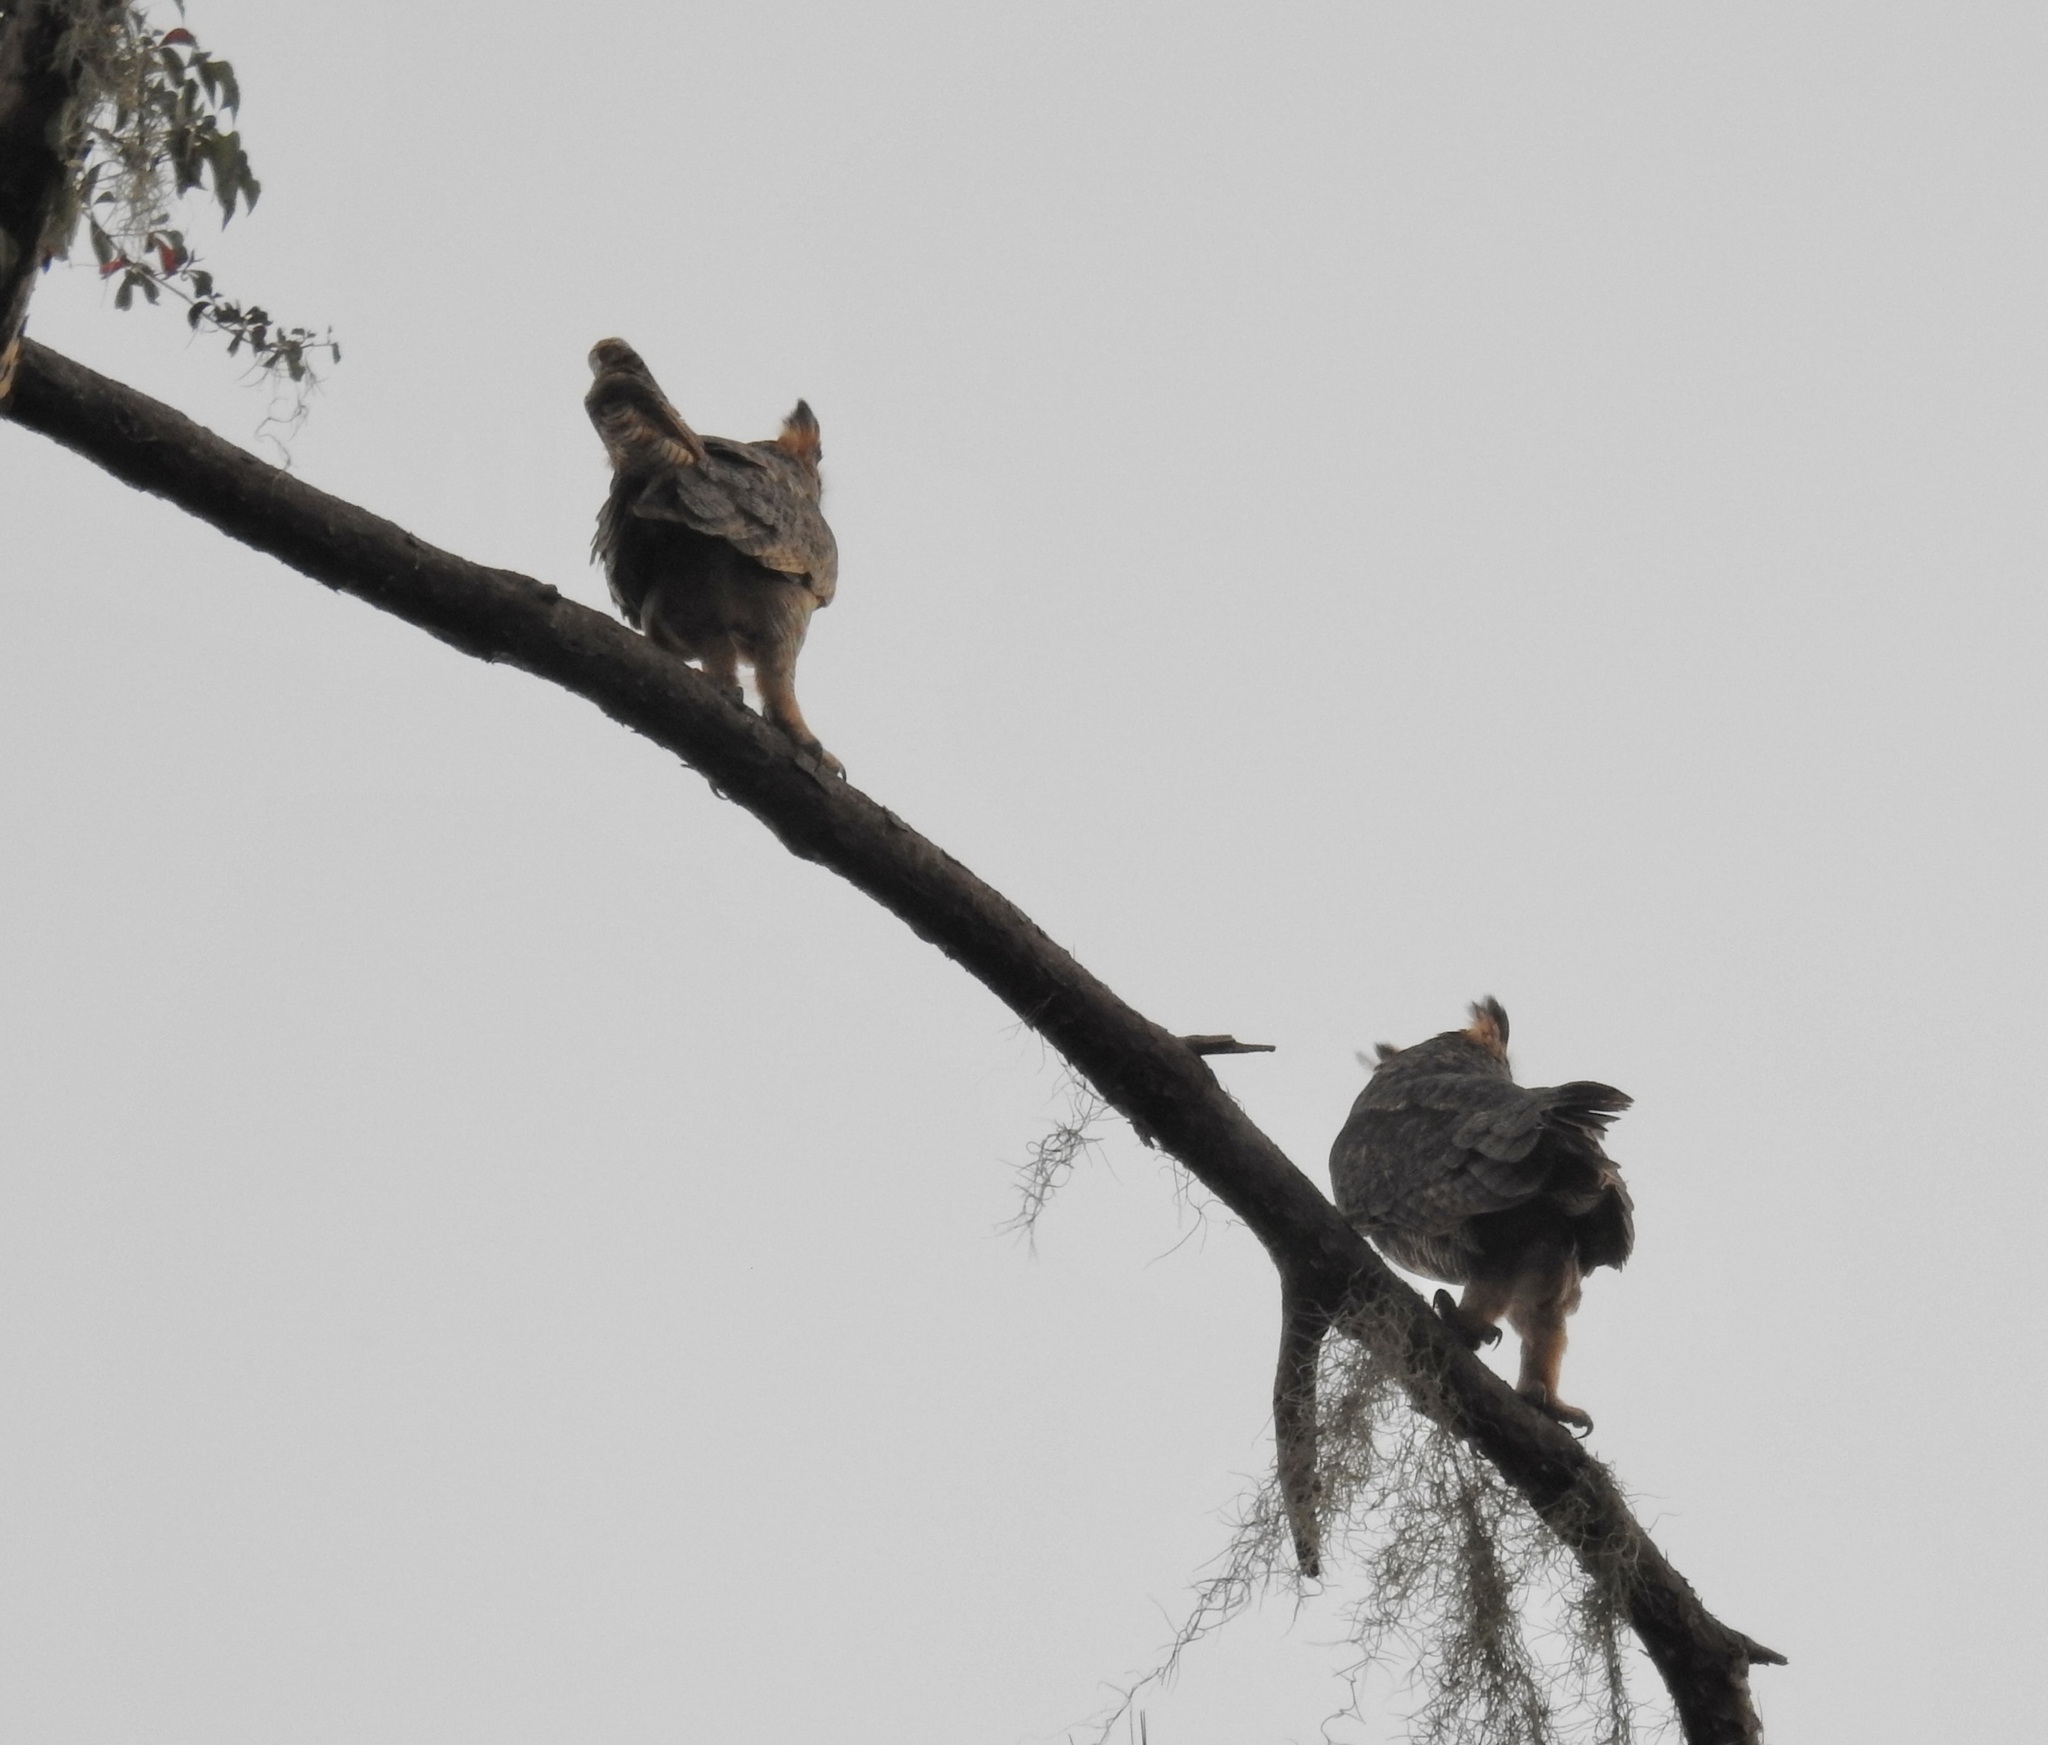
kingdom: Animalia
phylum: Chordata
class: Aves
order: Strigiformes
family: Strigidae
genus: Bubo
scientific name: Bubo virginianus
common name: Great horned owl
